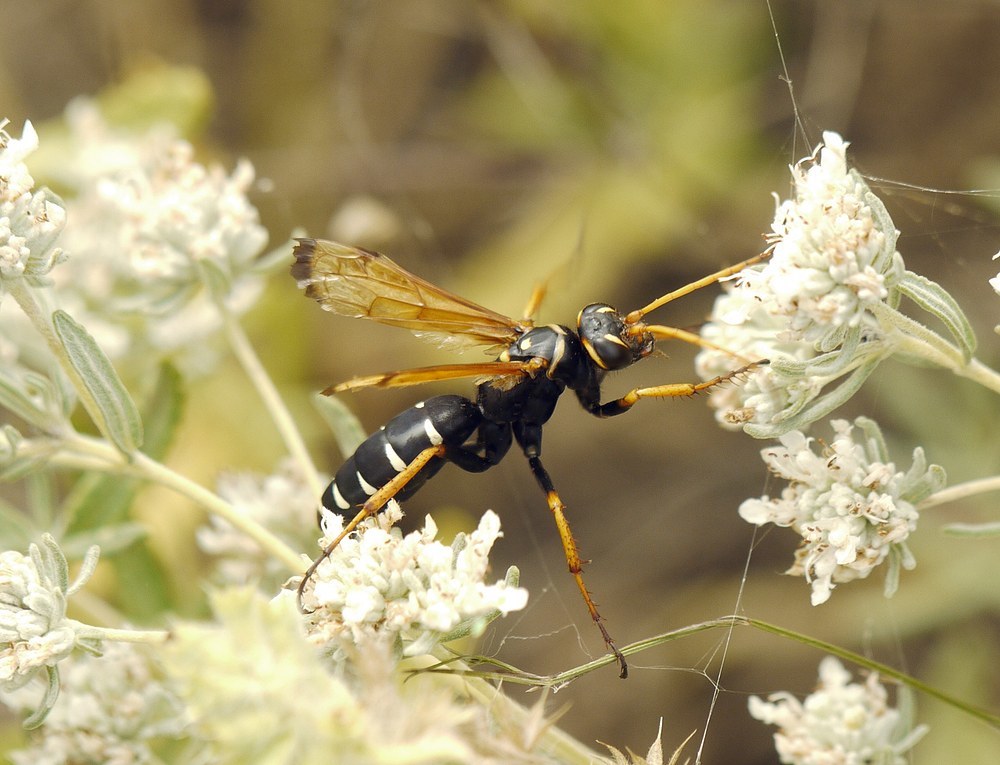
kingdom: Animalia
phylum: Arthropoda
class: Insecta
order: Hymenoptera
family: Pompilidae
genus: Parabatozonus
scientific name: Parabatozonus lacerticida
